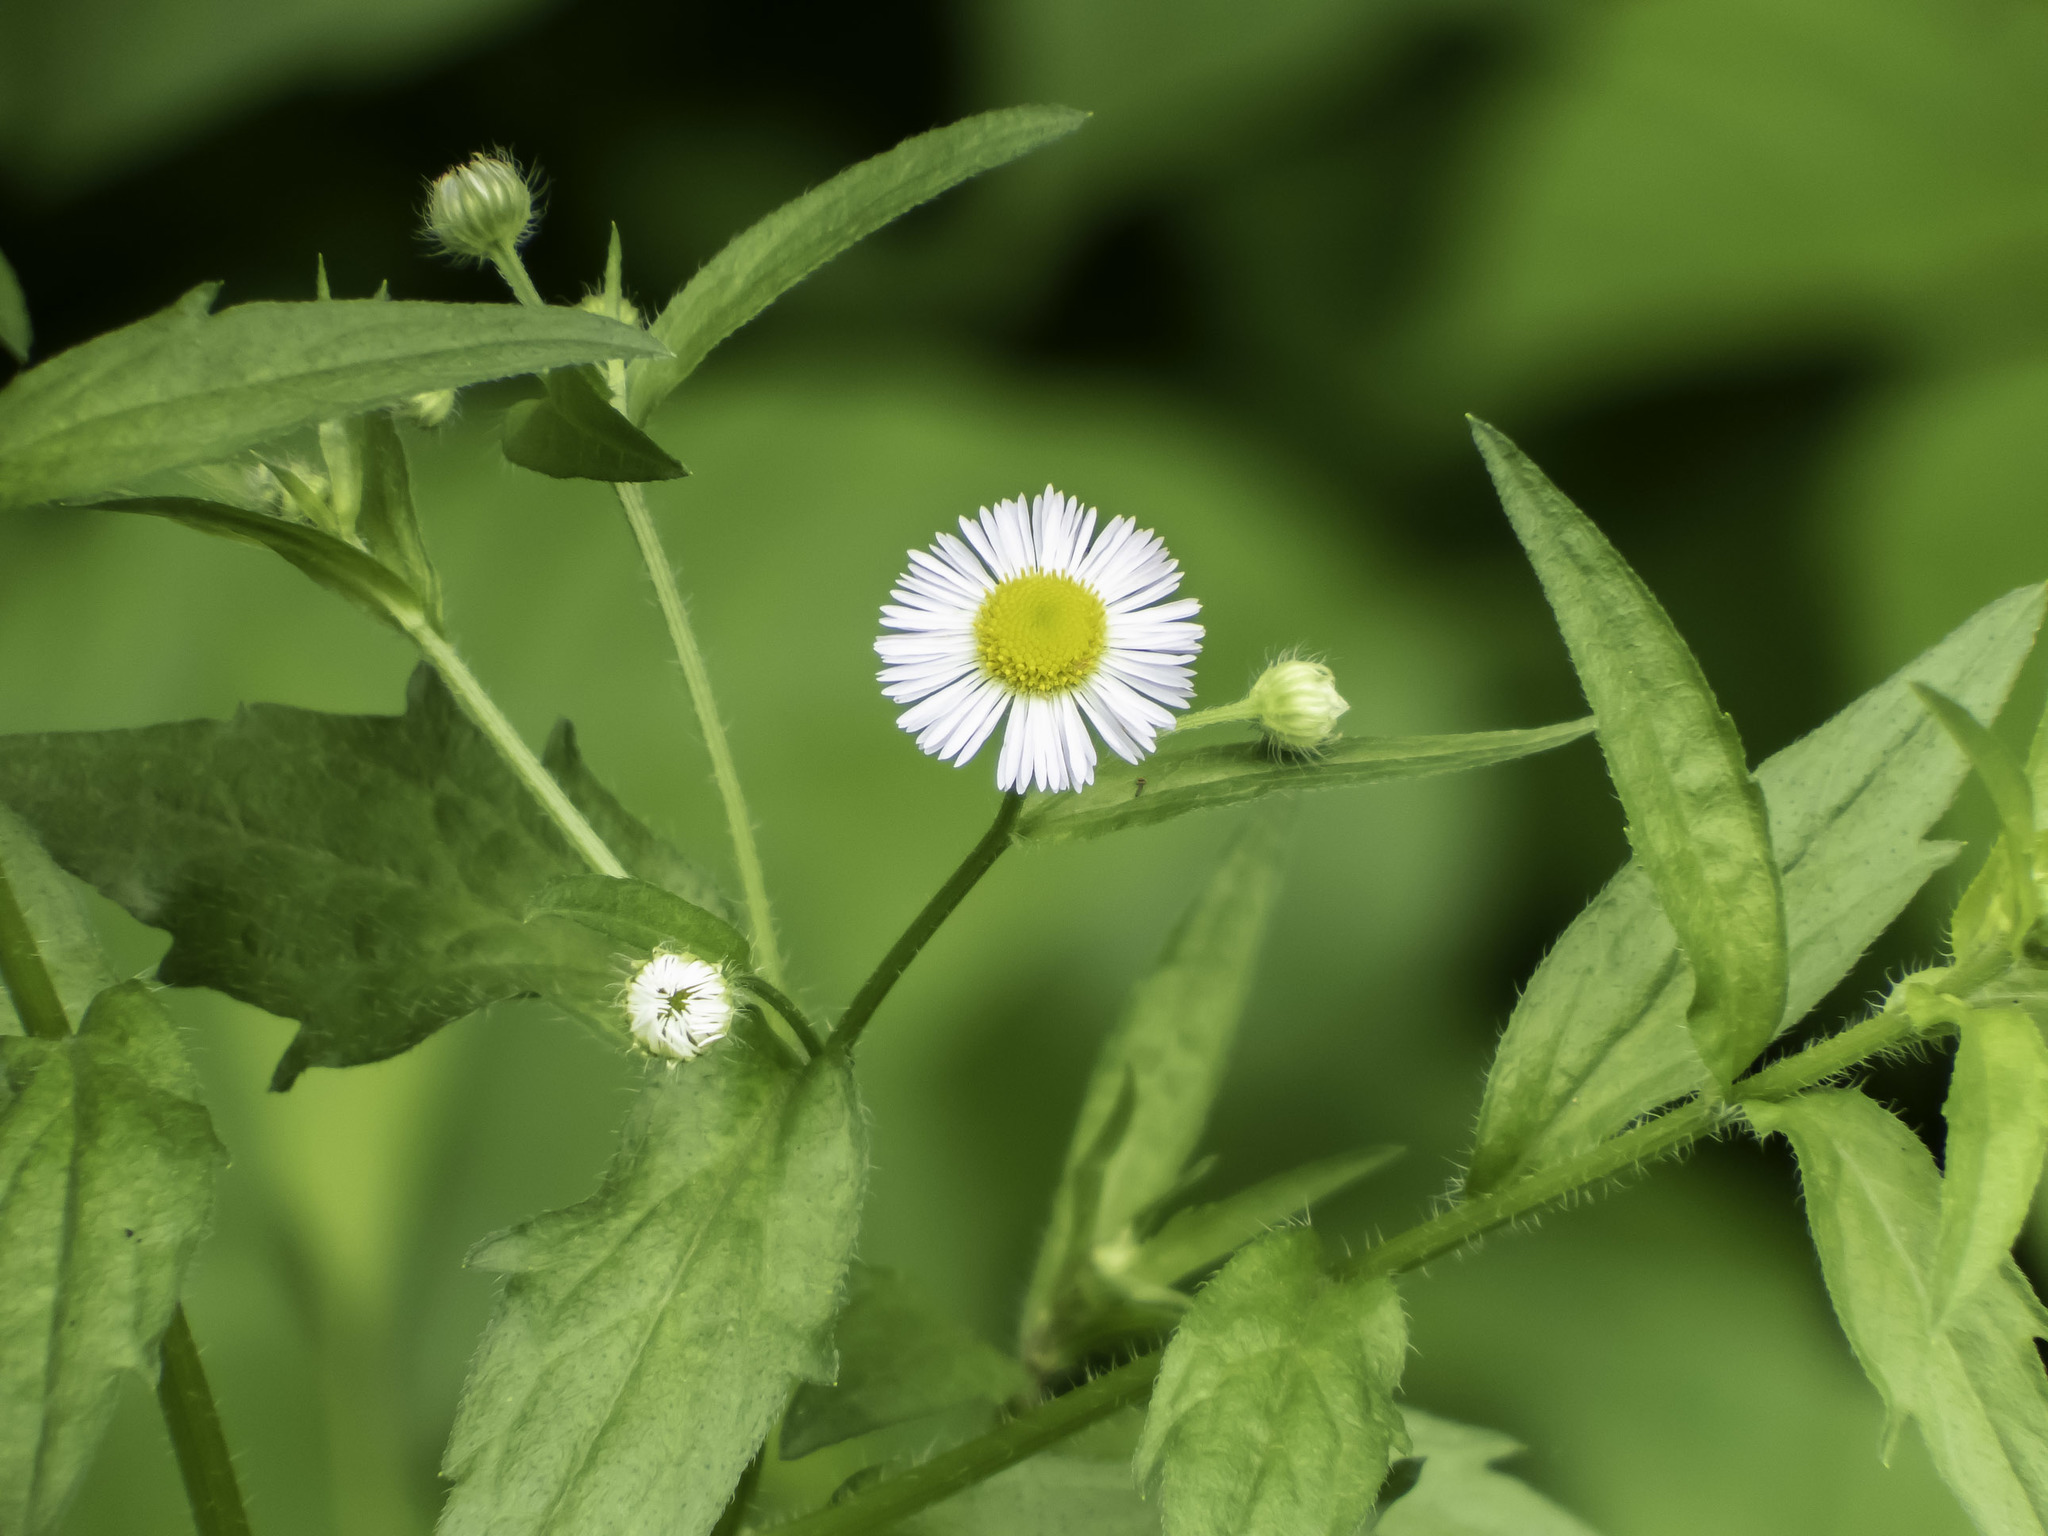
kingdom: Plantae
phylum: Tracheophyta
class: Magnoliopsida
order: Asterales
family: Asteraceae
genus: Erigeron
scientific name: Erigeron annuus
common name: Tall fleabane
